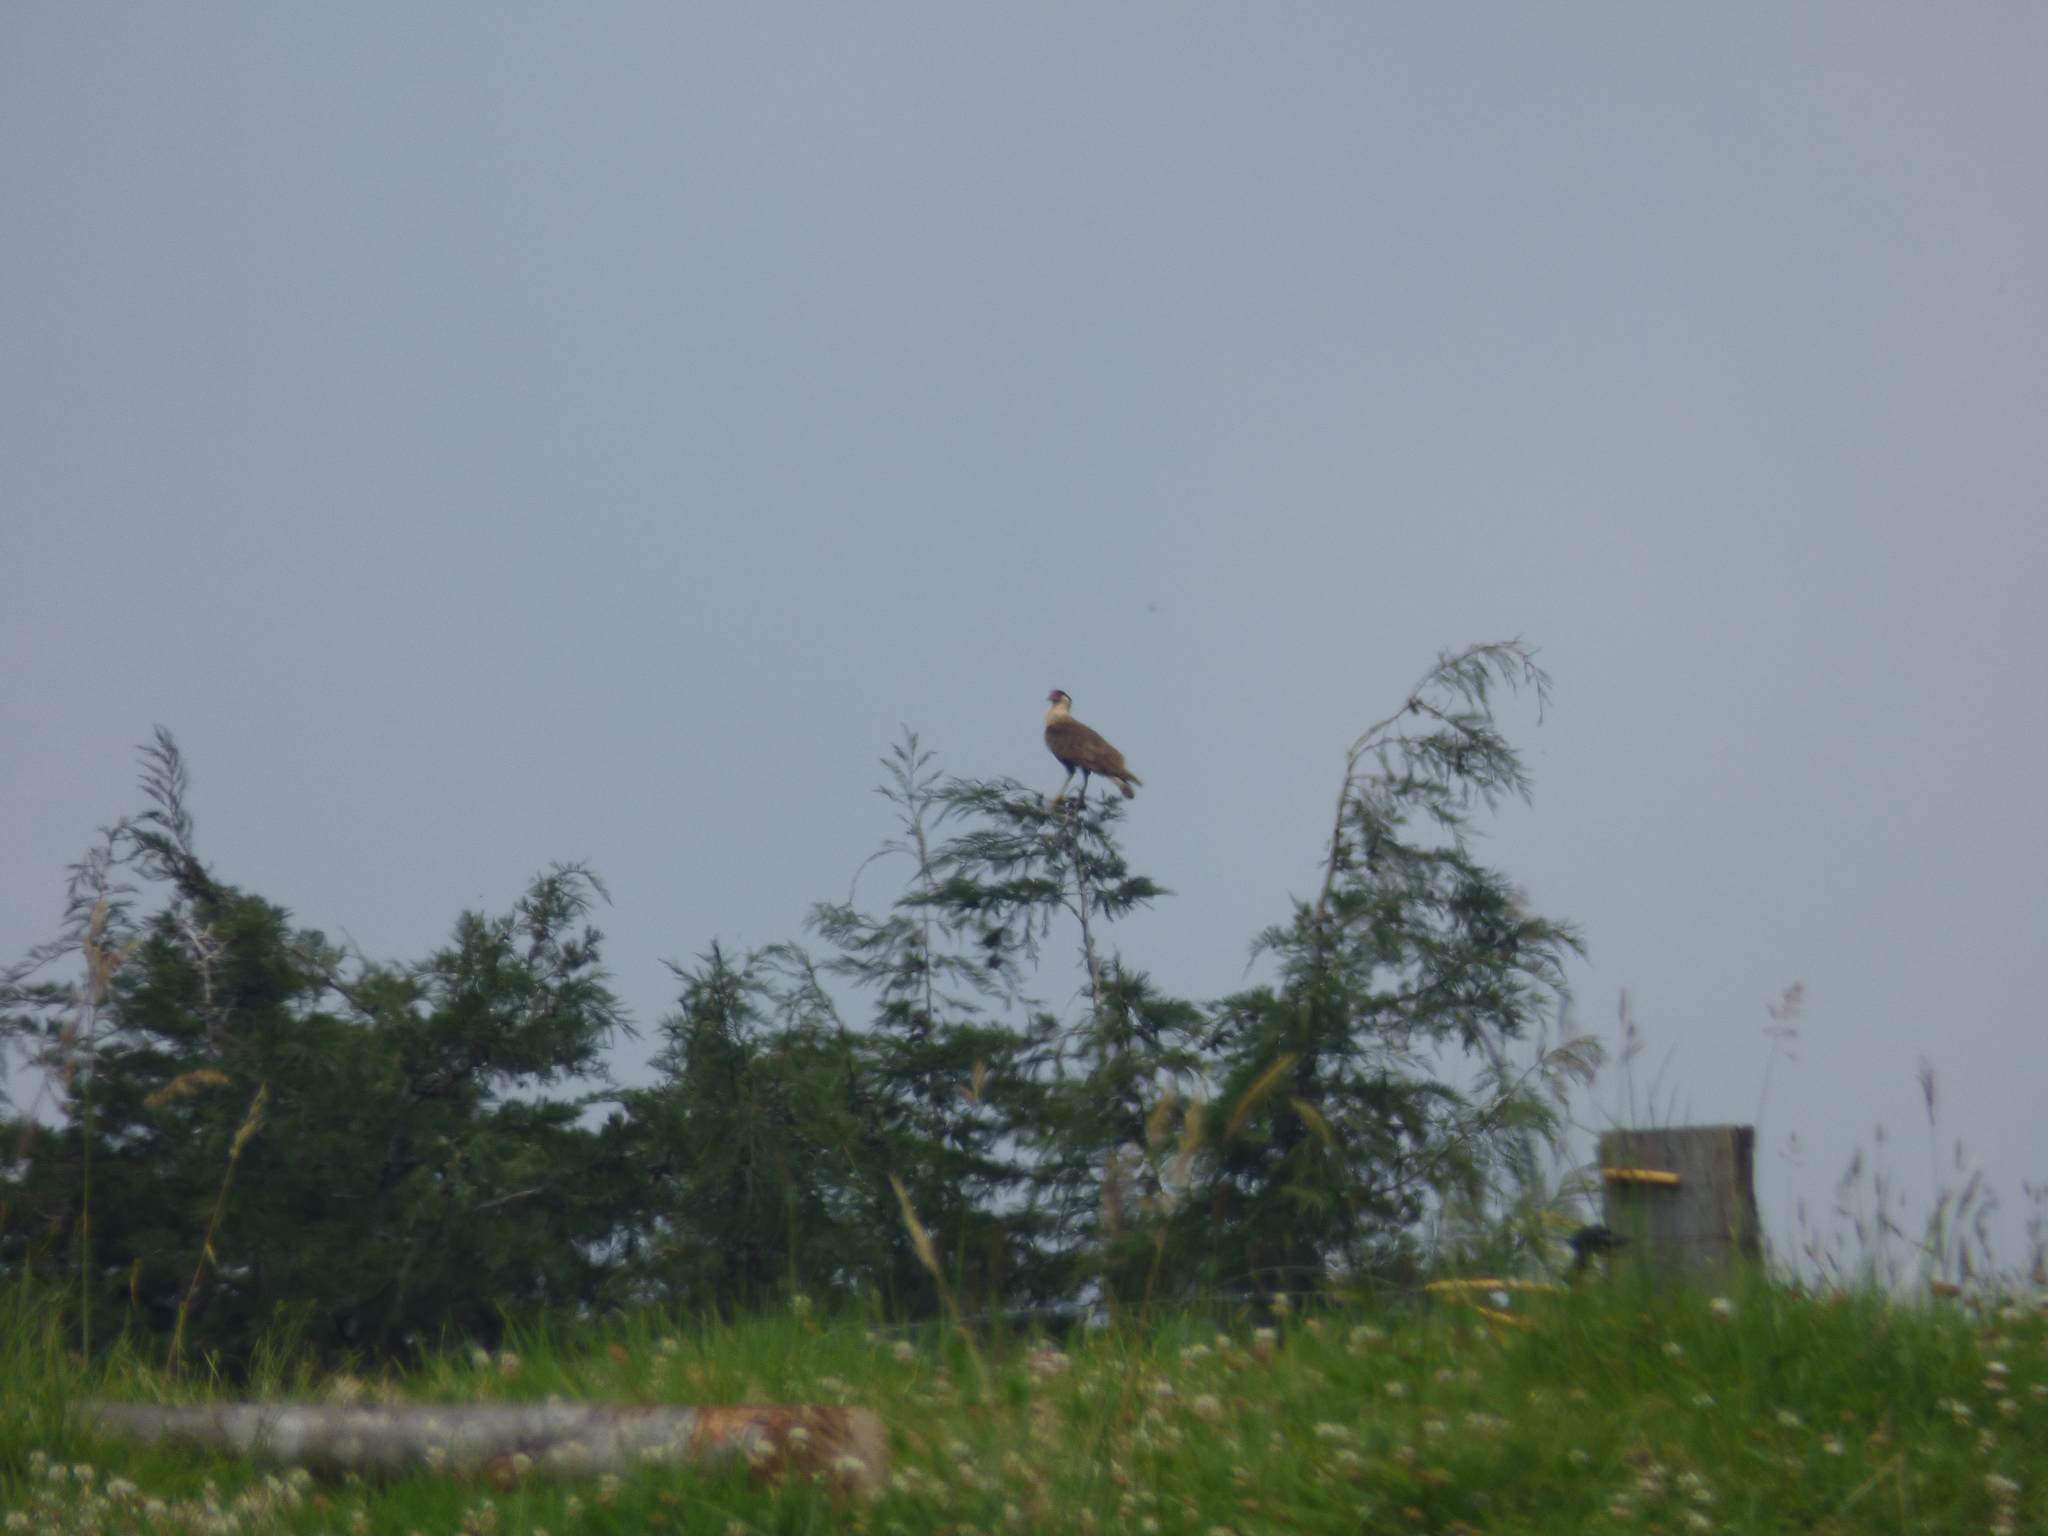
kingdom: Animalia
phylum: Chordata
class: Aves
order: Falconiformes
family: Falconidae
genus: Caracara
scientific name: Caracara plancus
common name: Southern caracara
